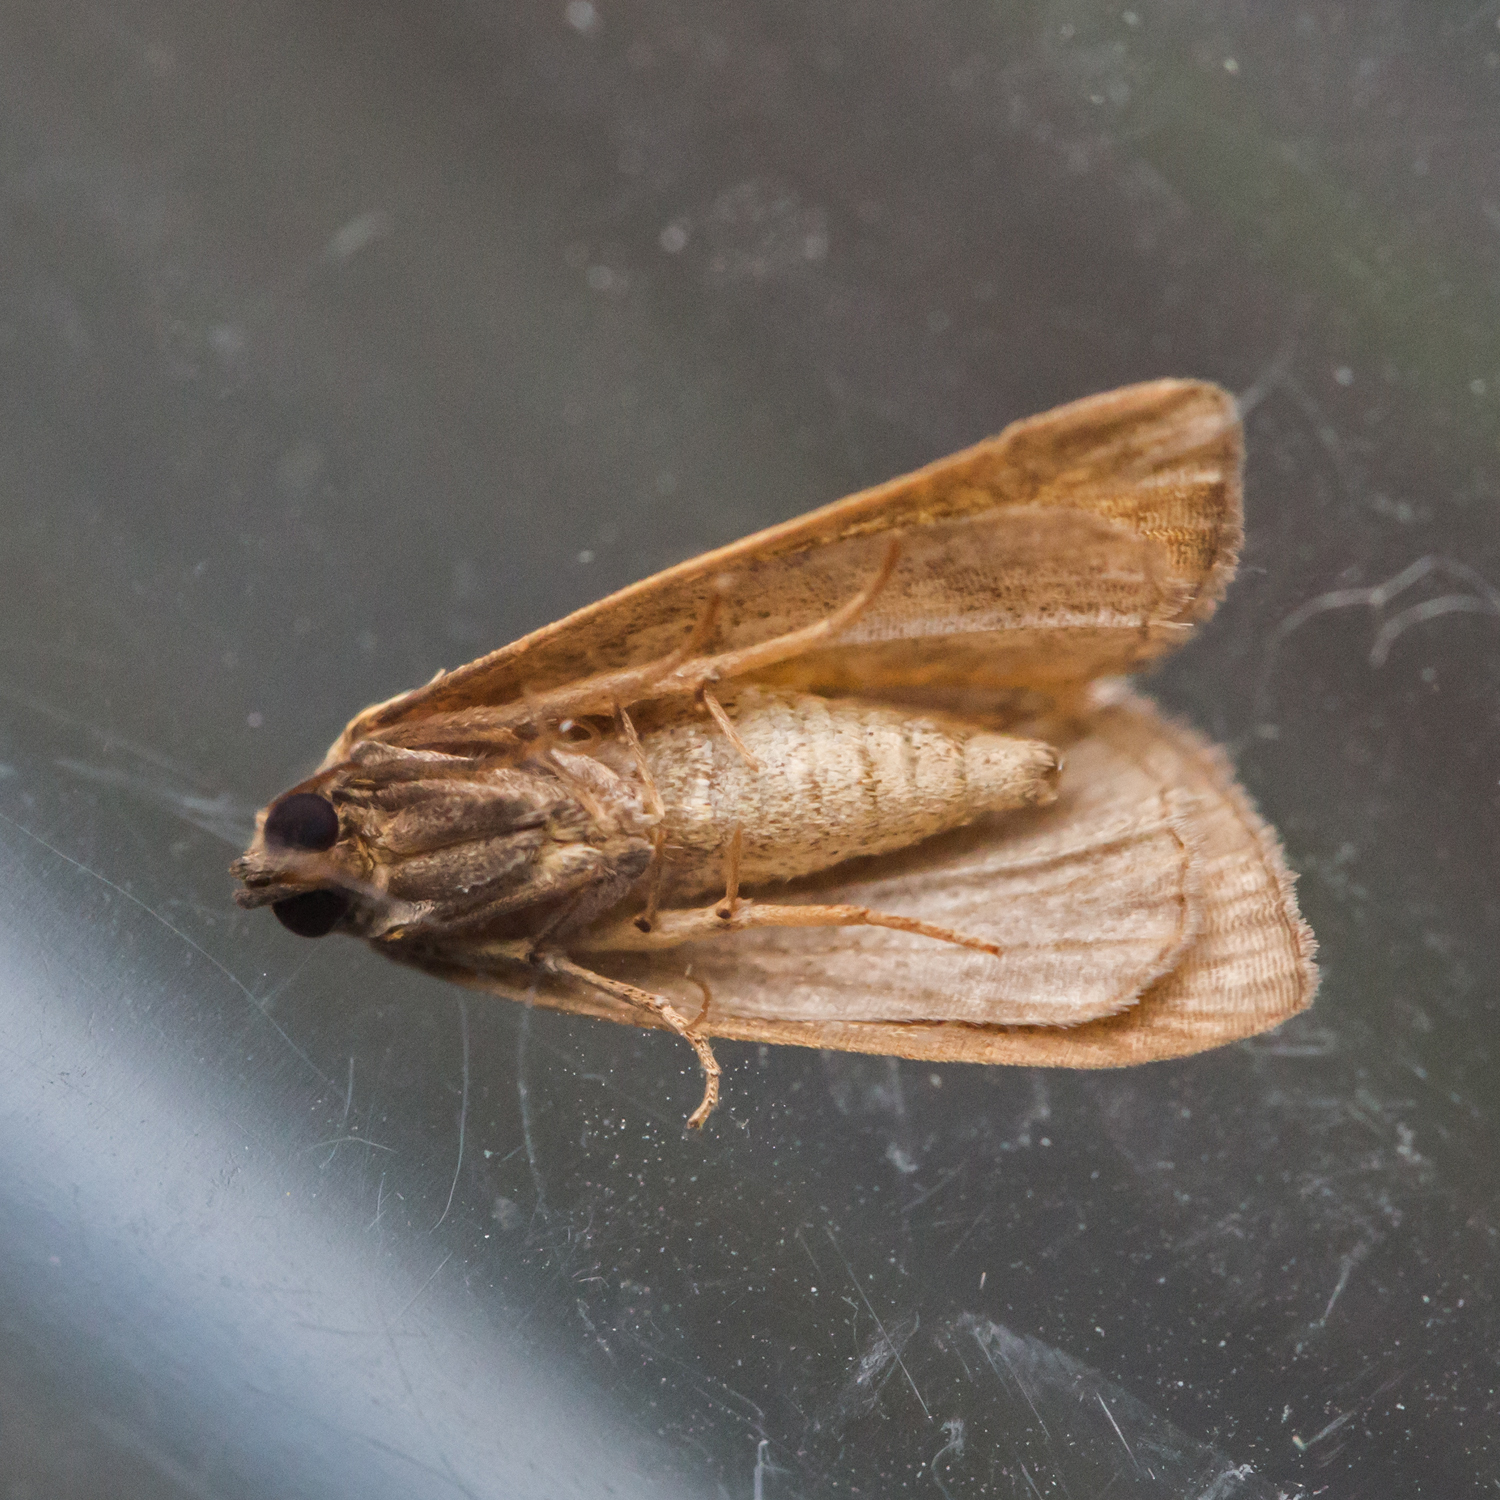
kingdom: Animalia
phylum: Arthropoda
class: Insecta
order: Lepidoptera
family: Noctuidae
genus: Marimatha
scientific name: Marimatha nigrofimbria
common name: Black-bordered lemon moth
